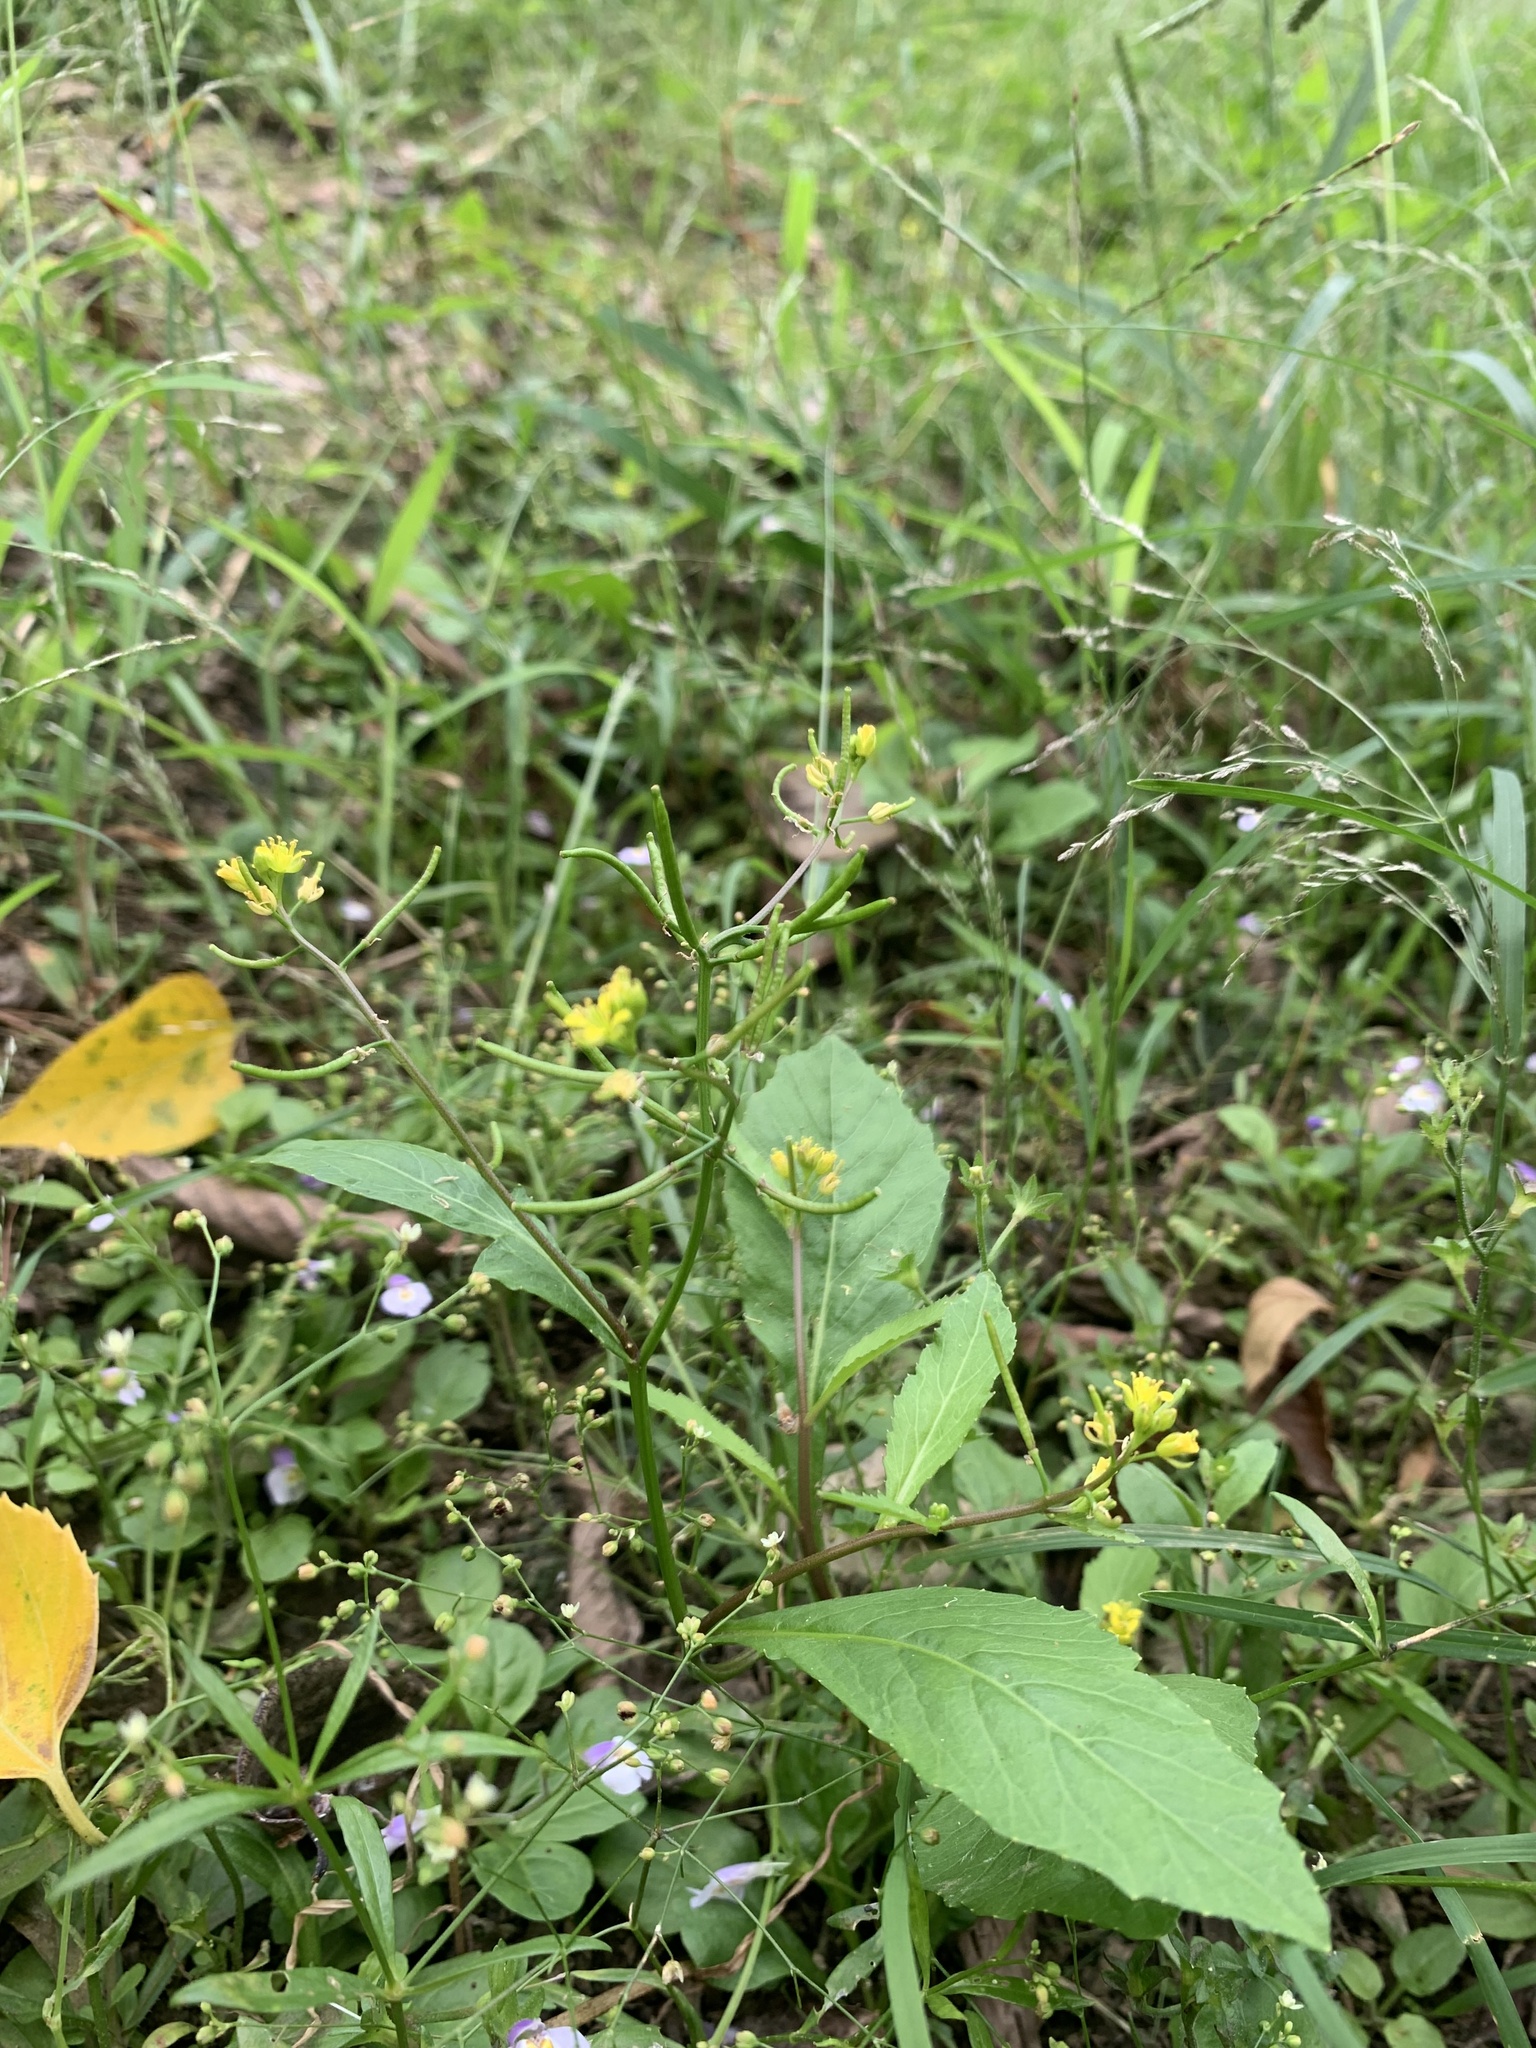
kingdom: Plantae
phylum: Tracheophyta
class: Magnoliopsida
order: Brassicales
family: Brassicaceae
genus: Rorippa
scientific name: Rorippa indica
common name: Variableleaf yellowcress
